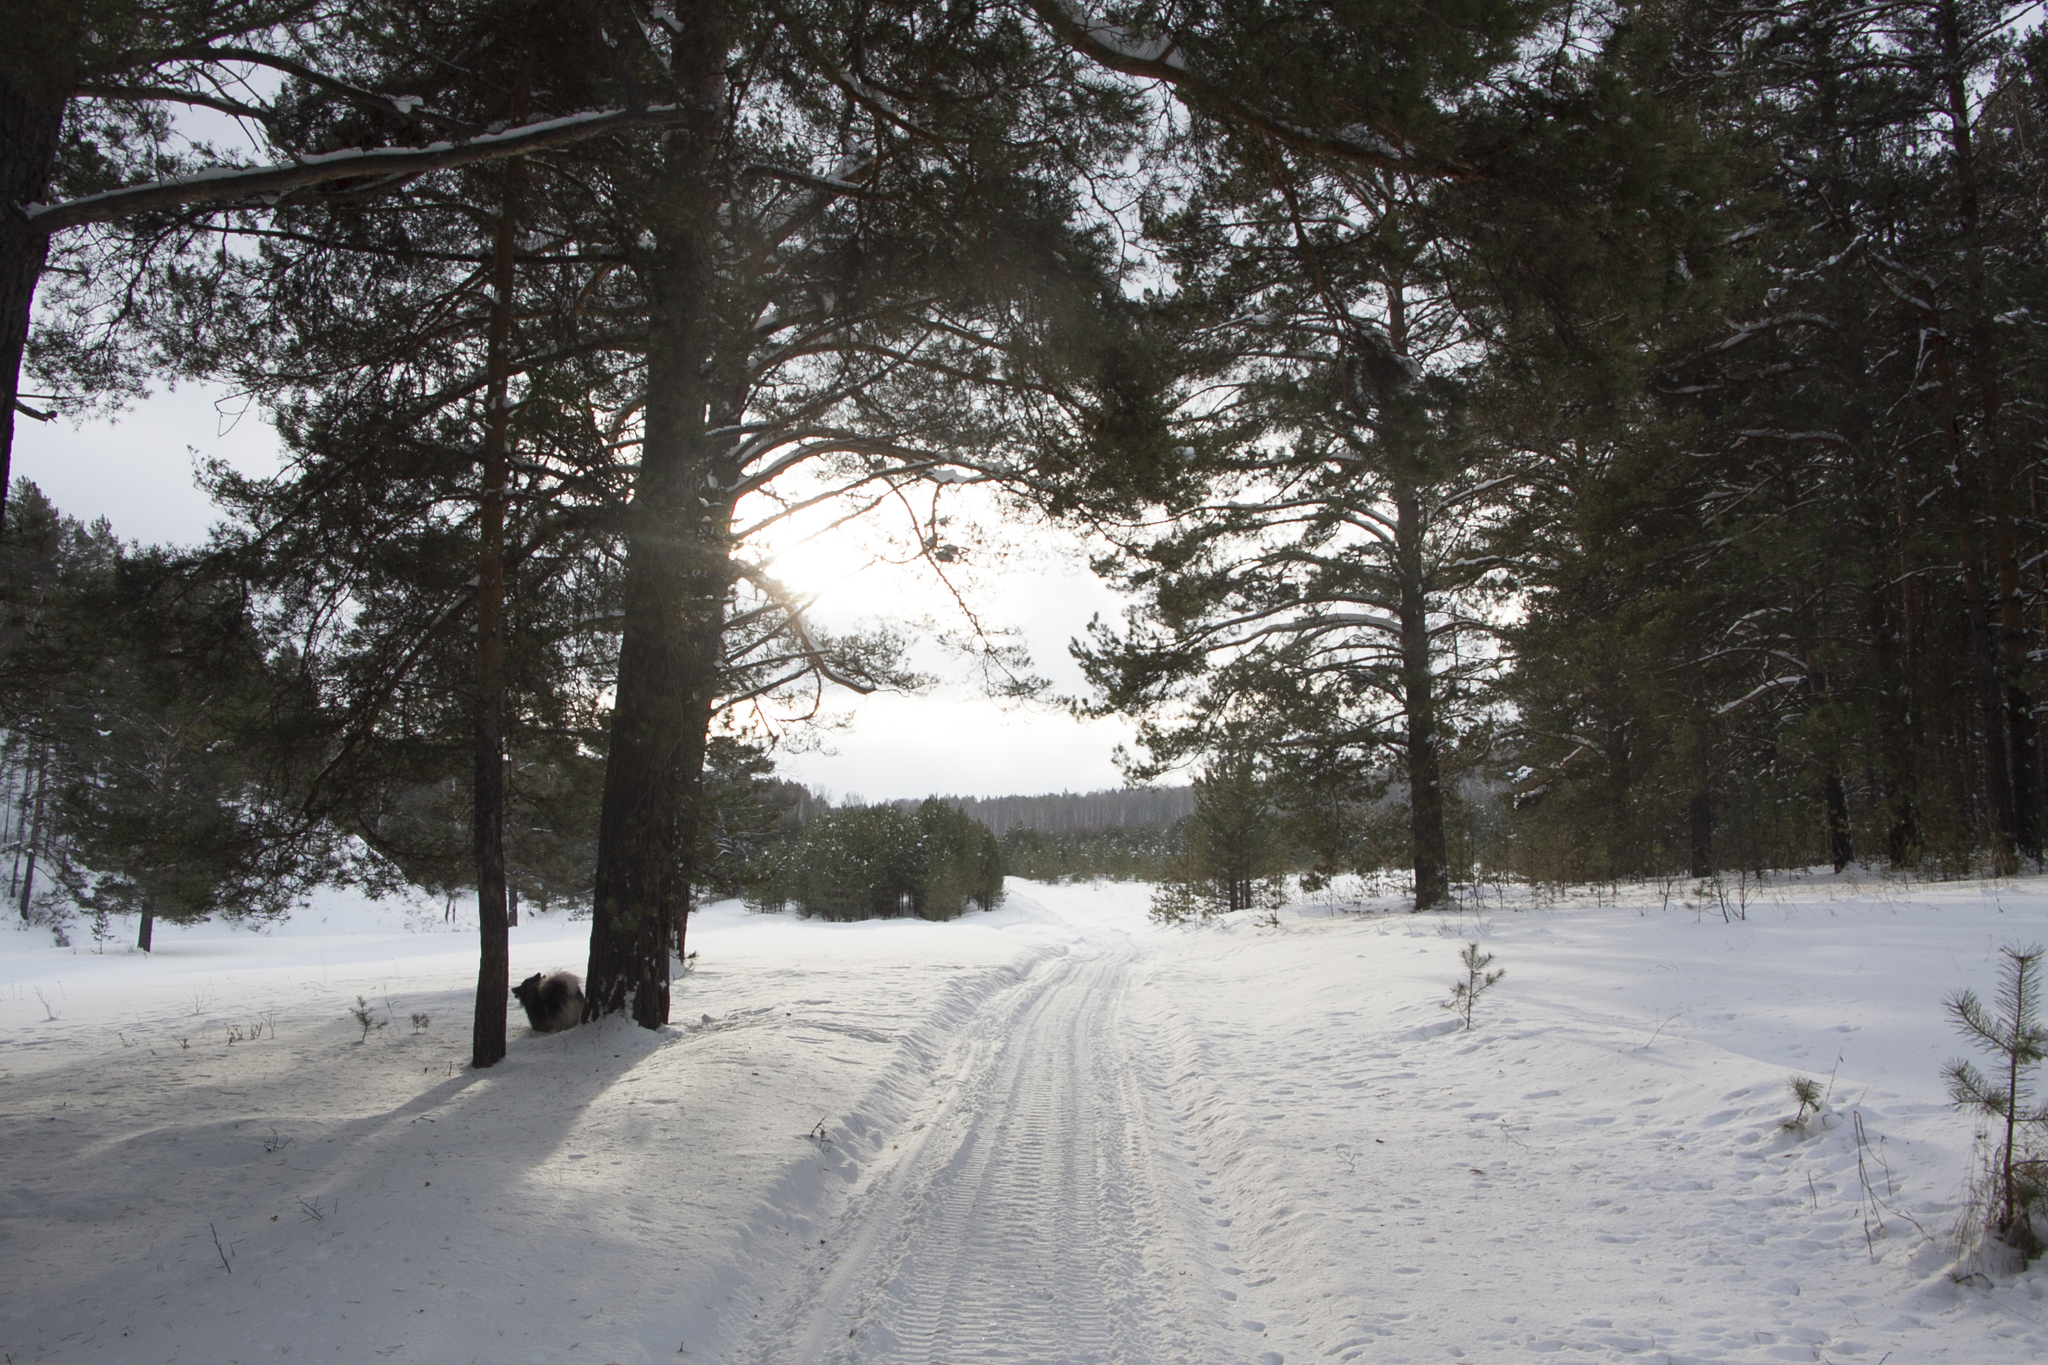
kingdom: Plantae
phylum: Tracheophyta
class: Pinopsida
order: Pinales
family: Pinaceae
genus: Pinus
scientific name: Pinus sylvestris
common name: Scots pine
